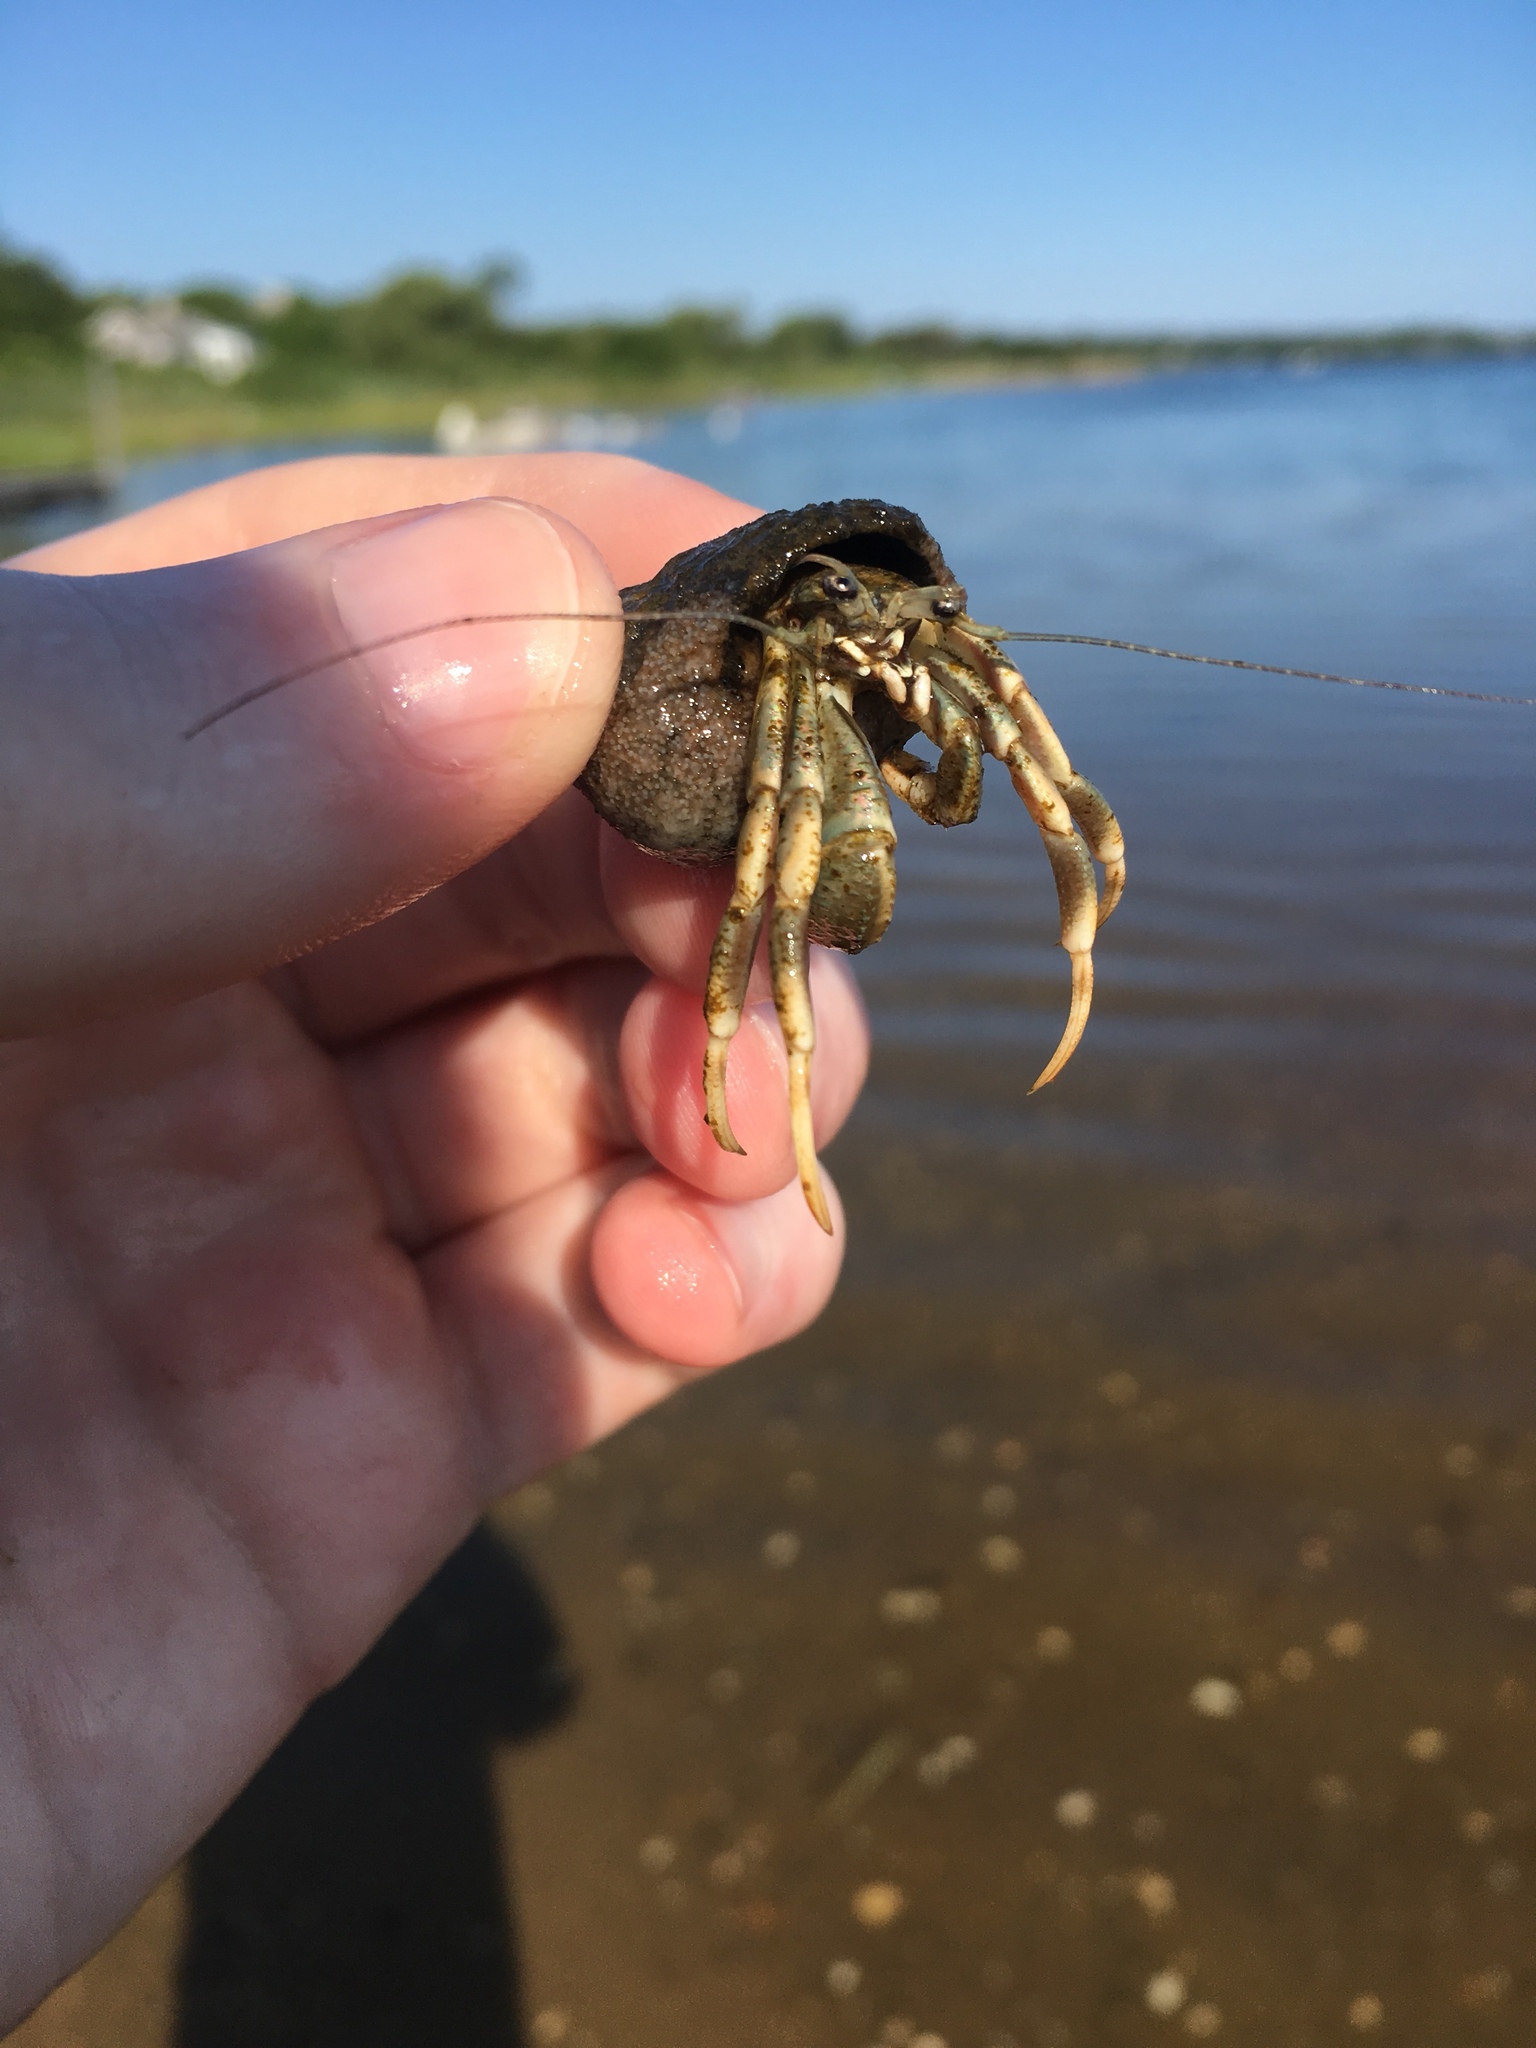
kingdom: Animalia
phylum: Arthropoda
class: Malacostraca
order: Decapoda
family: Paguridae
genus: Pagurus
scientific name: Pagurus longicarpus
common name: Long-armed hermit crab
